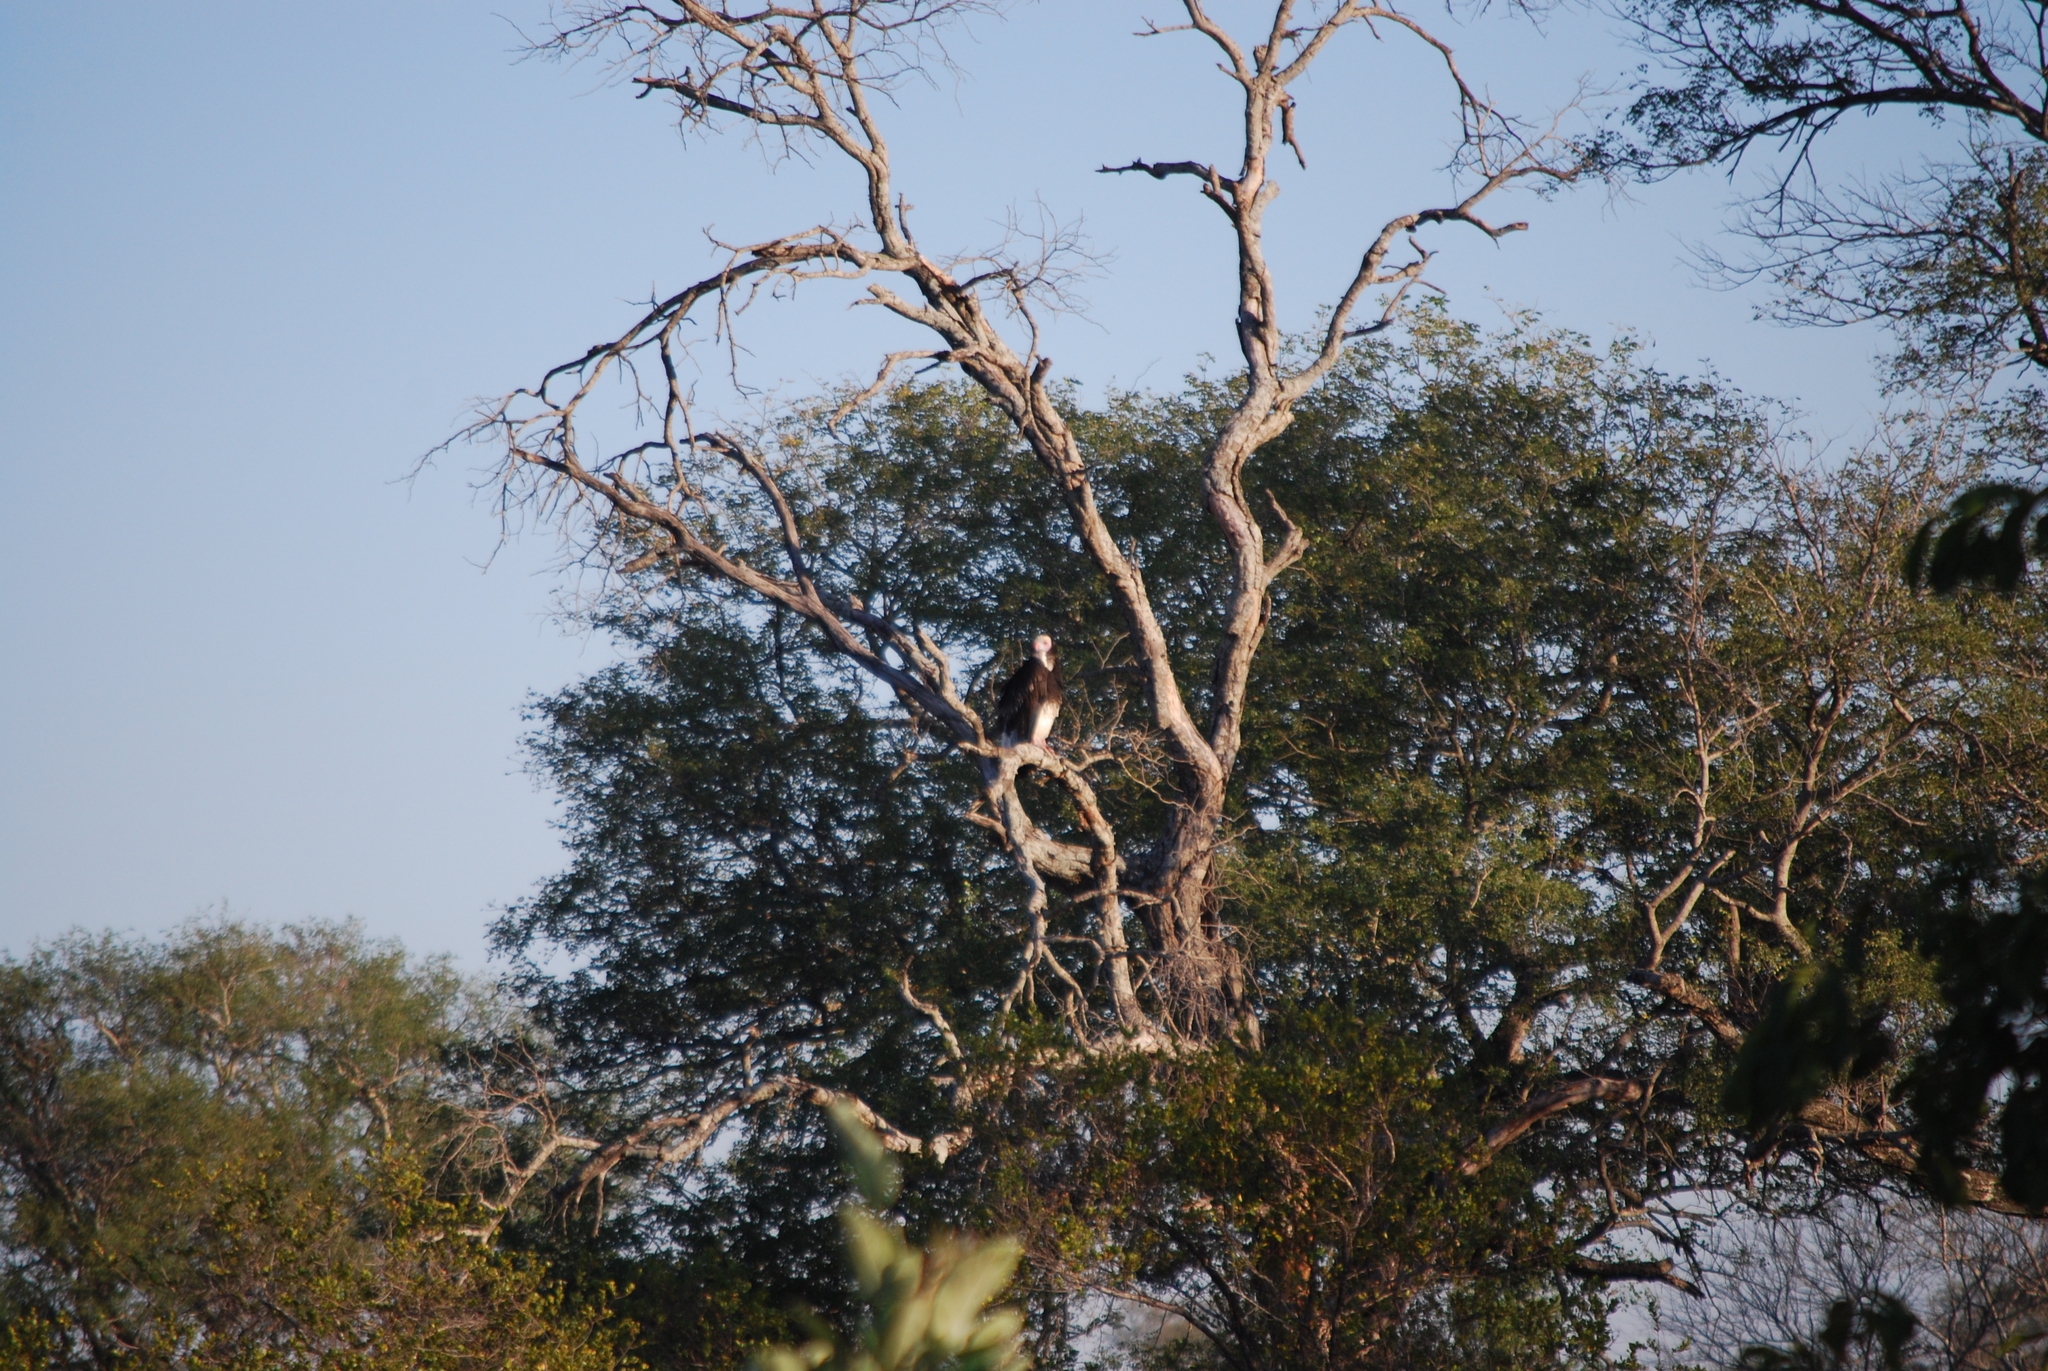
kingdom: Animalia
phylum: Chordata
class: Aves
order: Accipitriformes
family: Accipitridae
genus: Trigonoceps
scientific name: Trigonoceps occipitalis
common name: White-headed vulture
